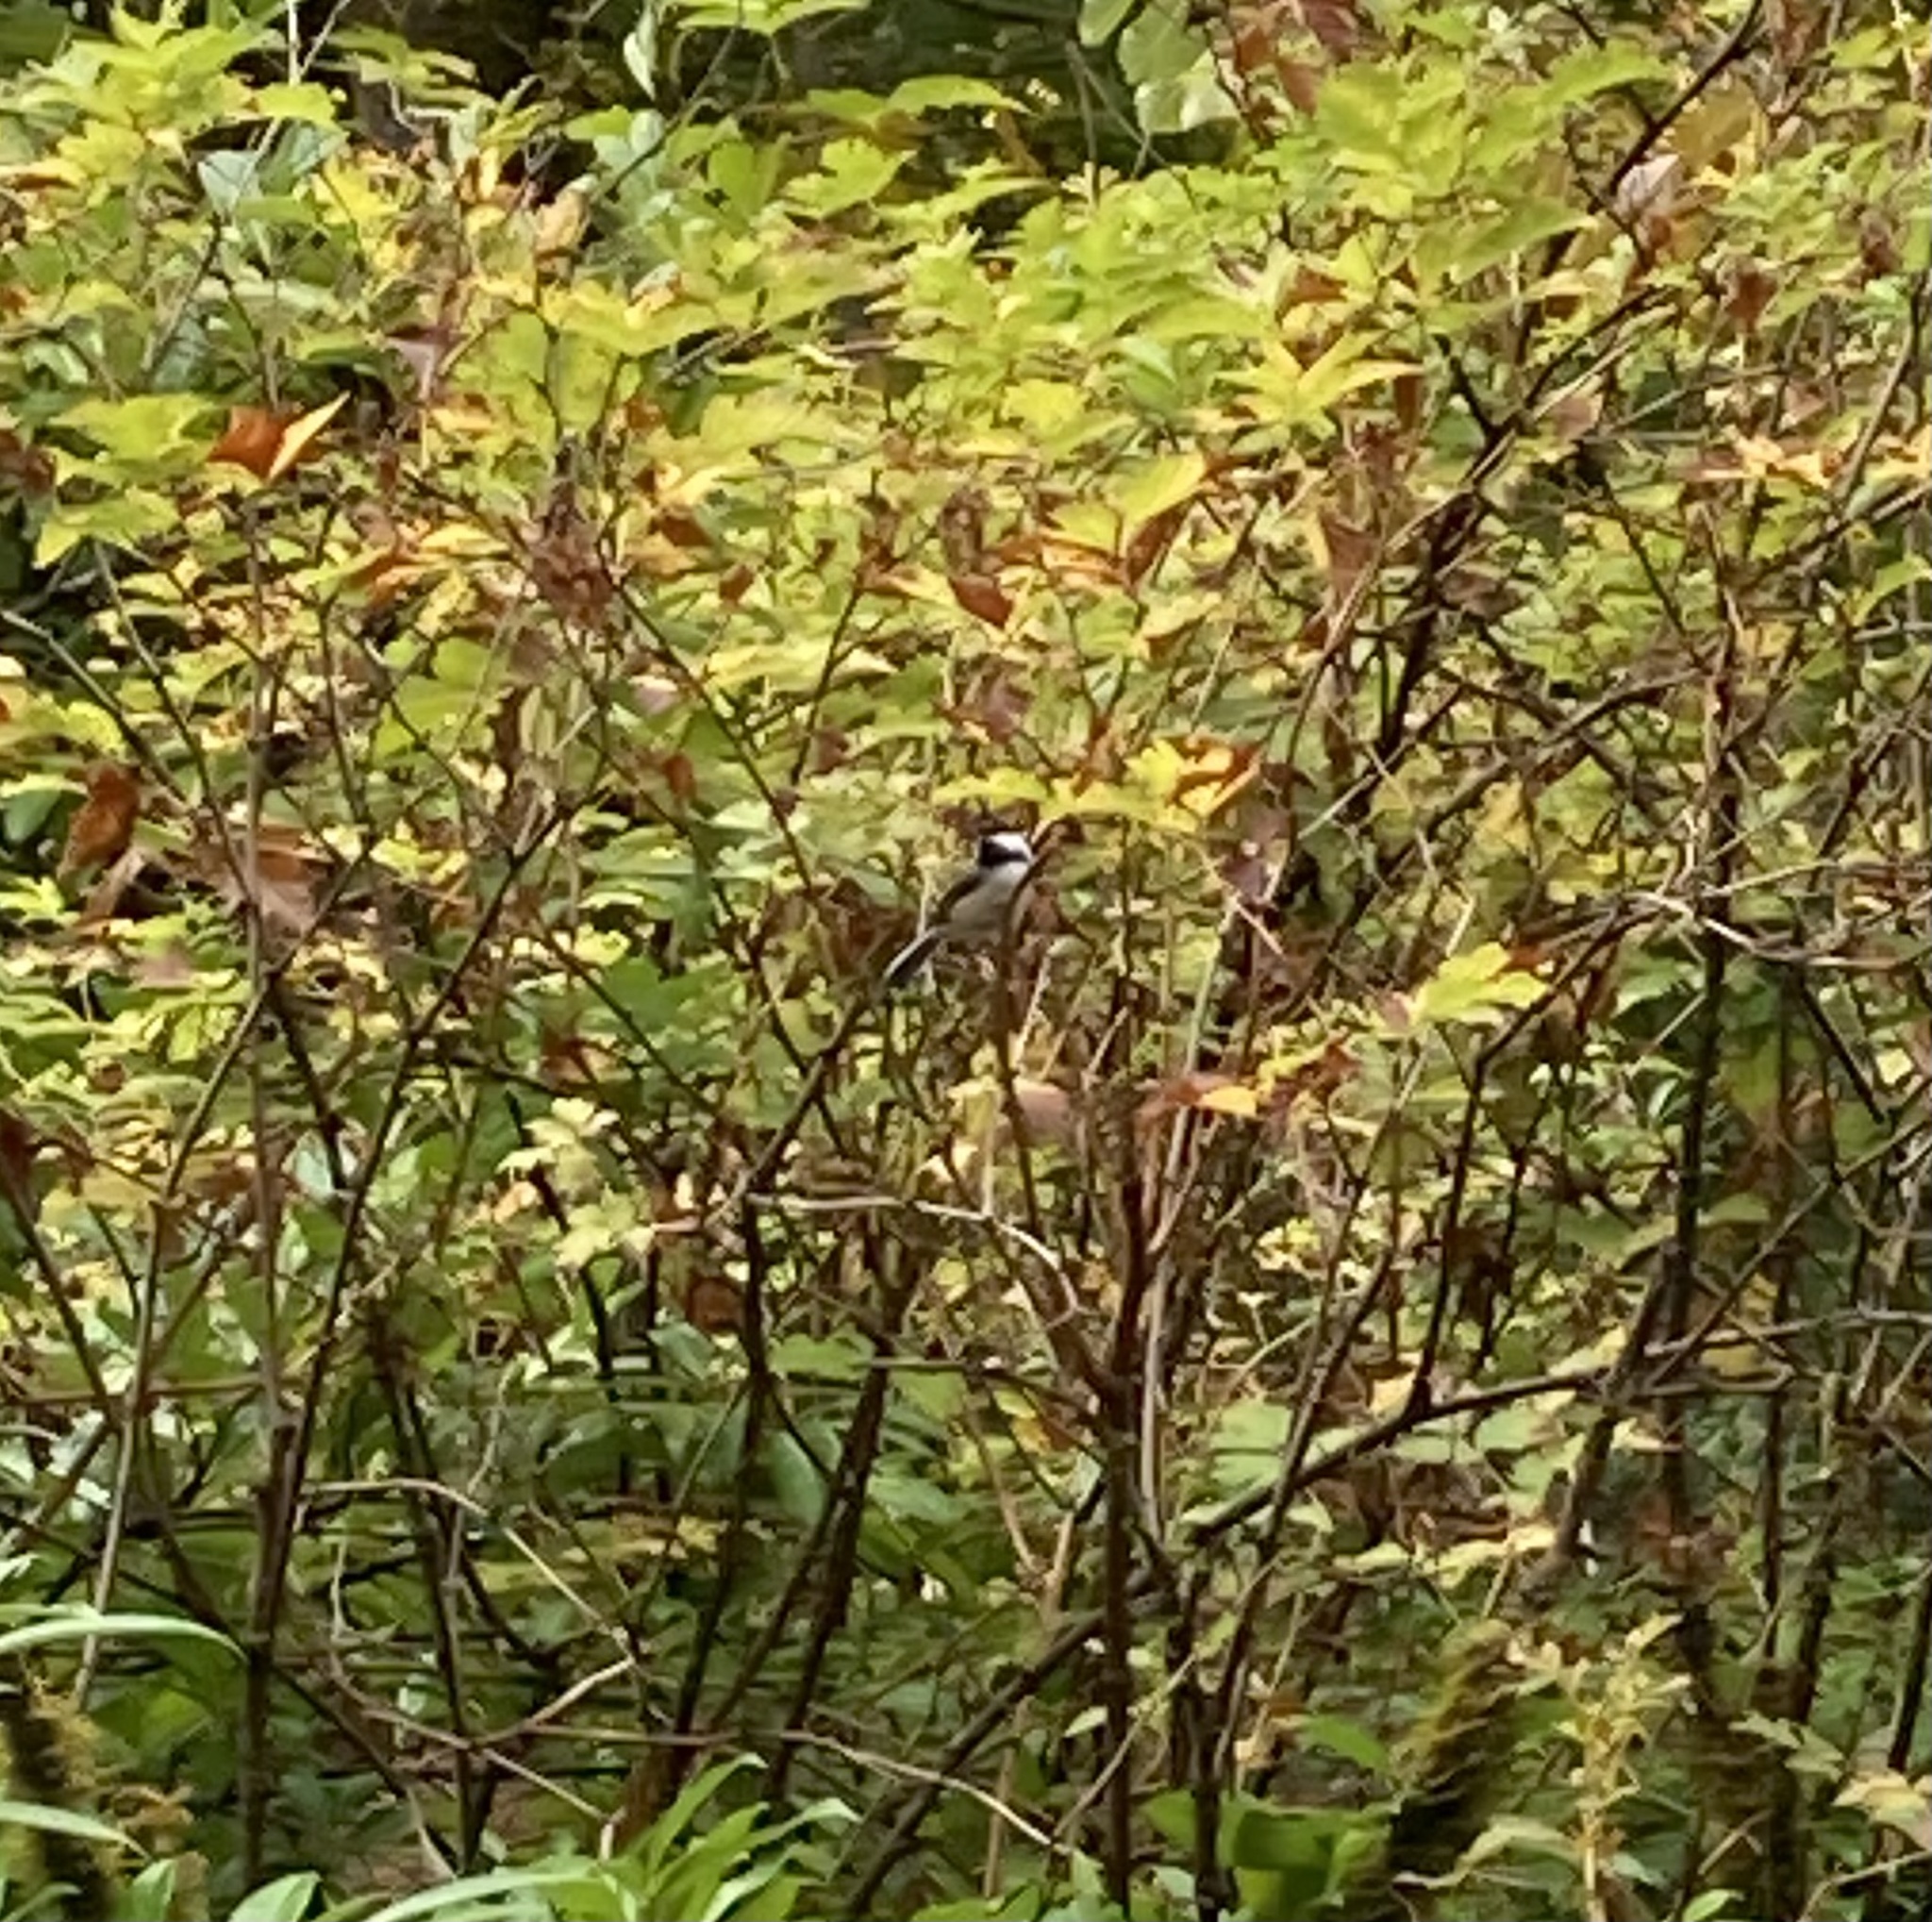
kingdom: Animalia
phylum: Chordata
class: Aves
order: Passeriformes
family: Paridae
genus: Poecile
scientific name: Poecile atricapillus
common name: Black-capped chickadee
